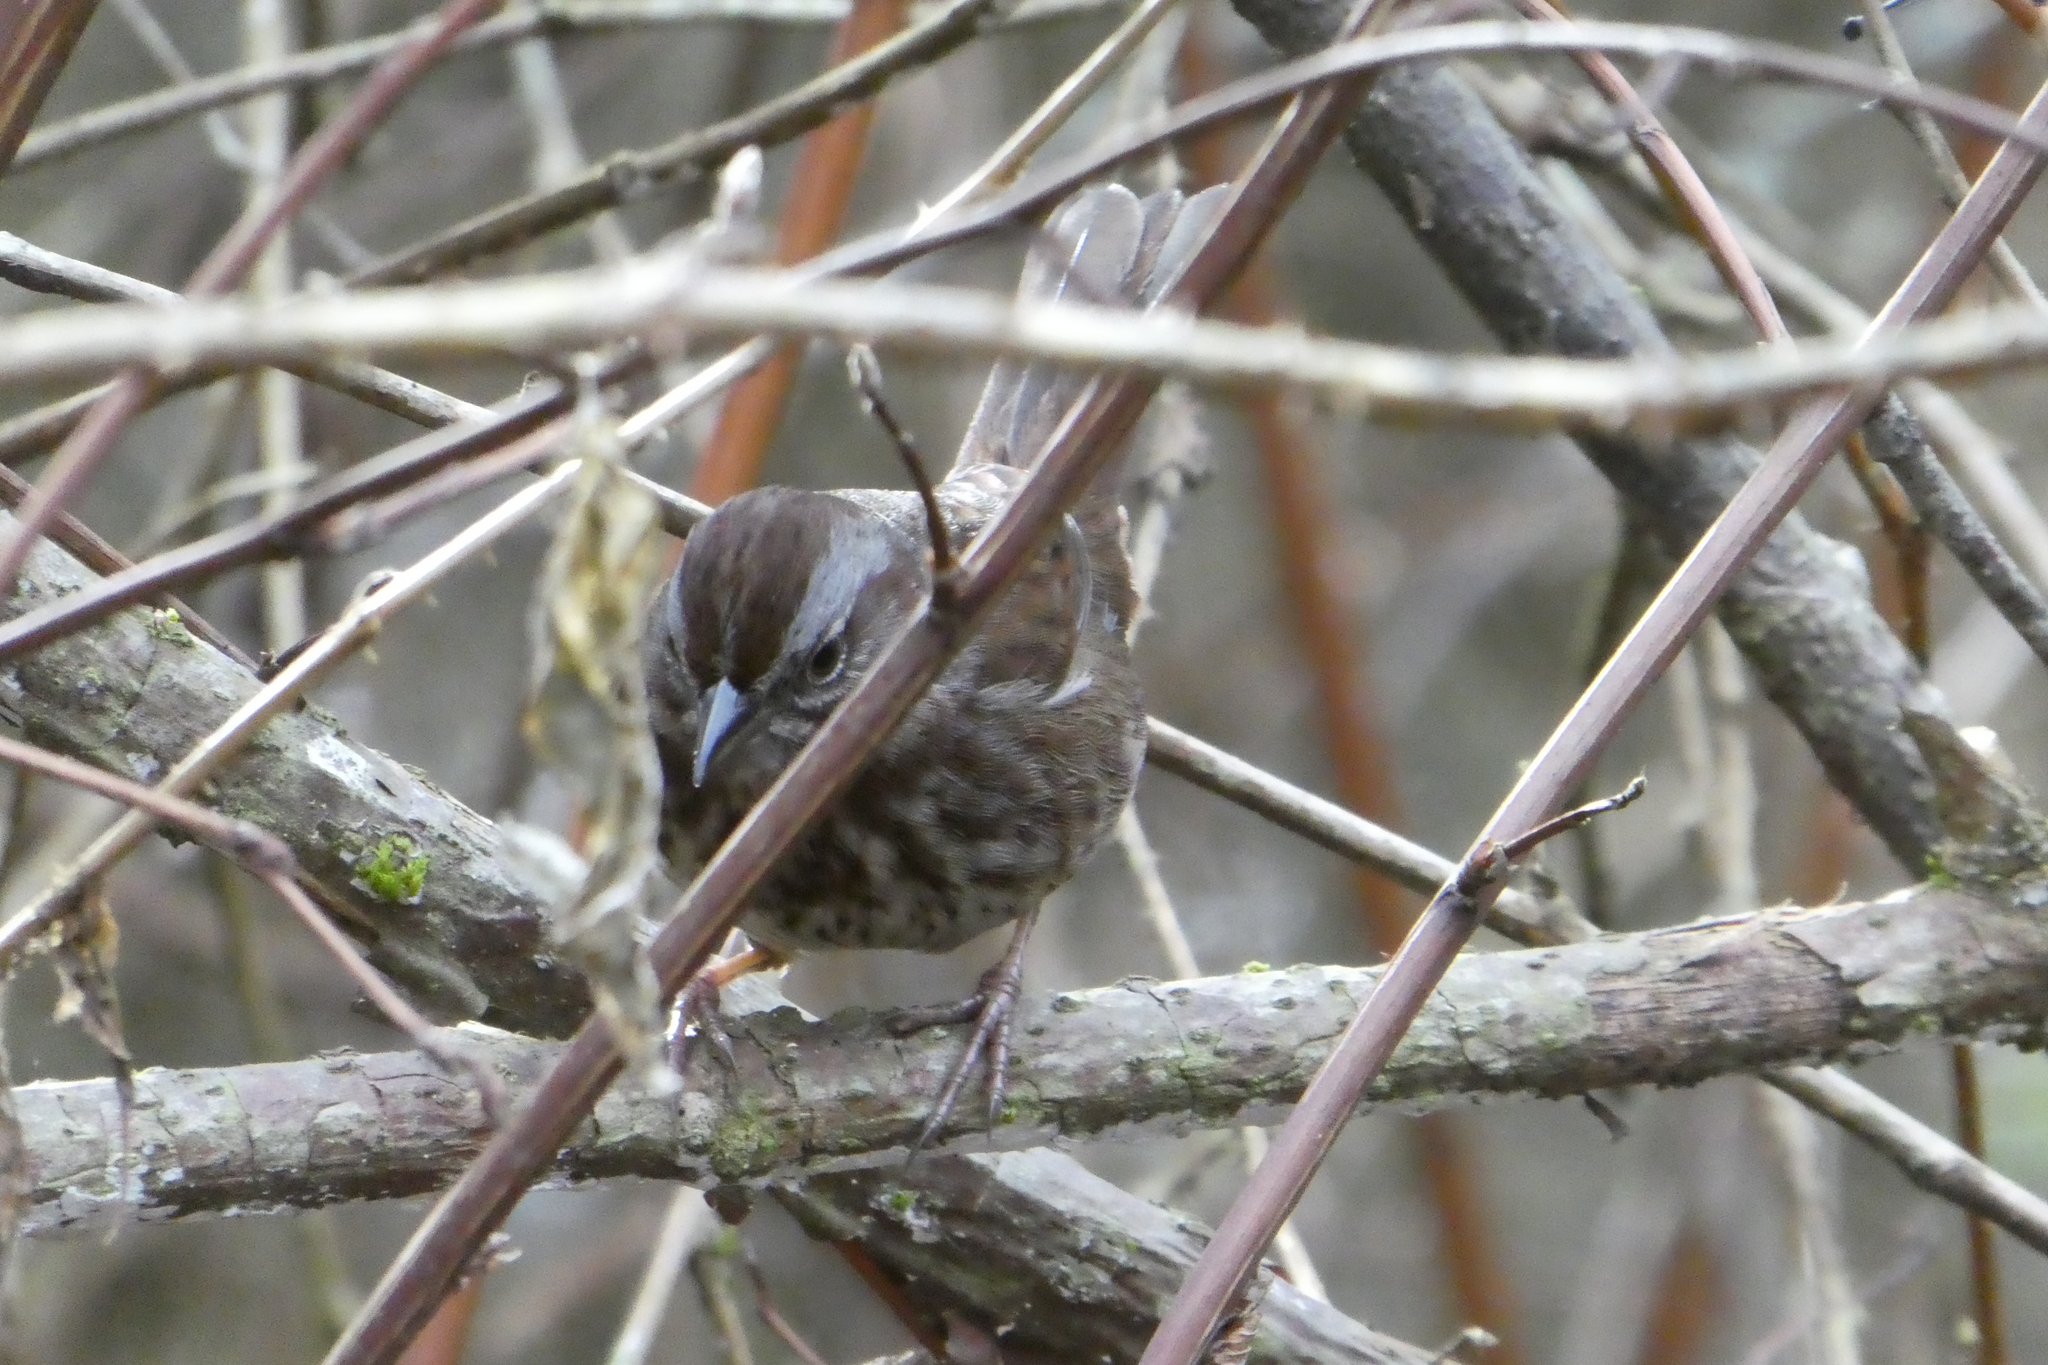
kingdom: Animalia
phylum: Chordata
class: Aves
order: Passeriformes
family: Passerellidae
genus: Melospiza
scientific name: Melospiza melodia
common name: Song sparrow
